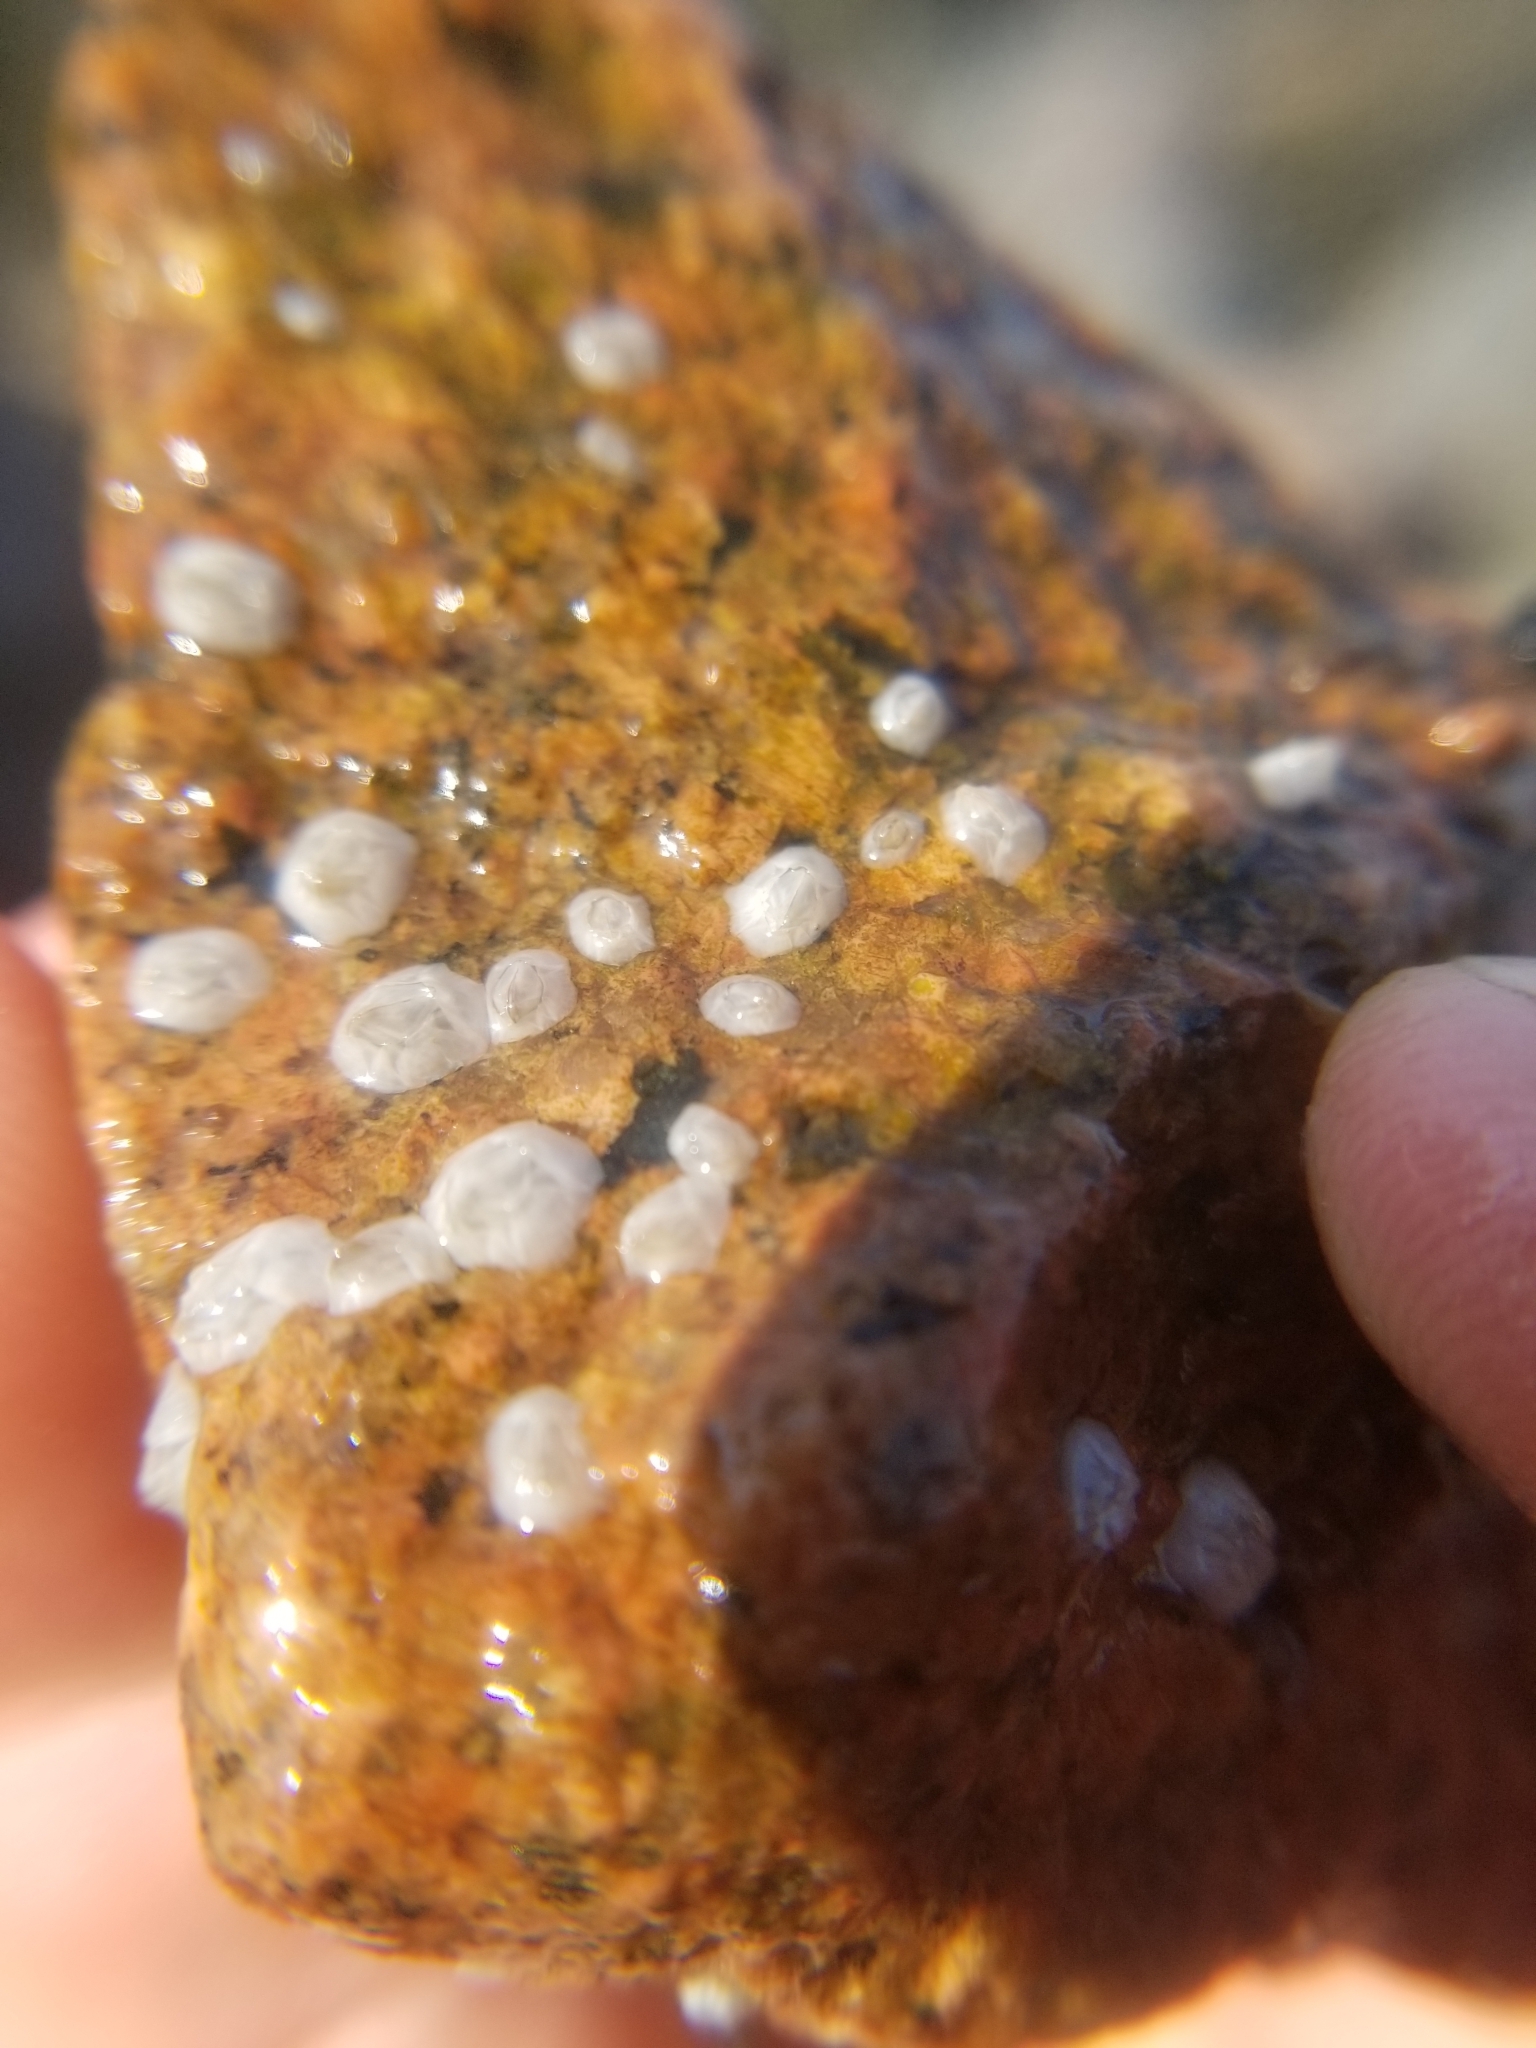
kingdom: Animalia
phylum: Arthropoda
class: Maxillopoda
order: Sessilia
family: Archaeobalanidae
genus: Semibalanus
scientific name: Semibalanus balanoides
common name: Acorn barnacle
